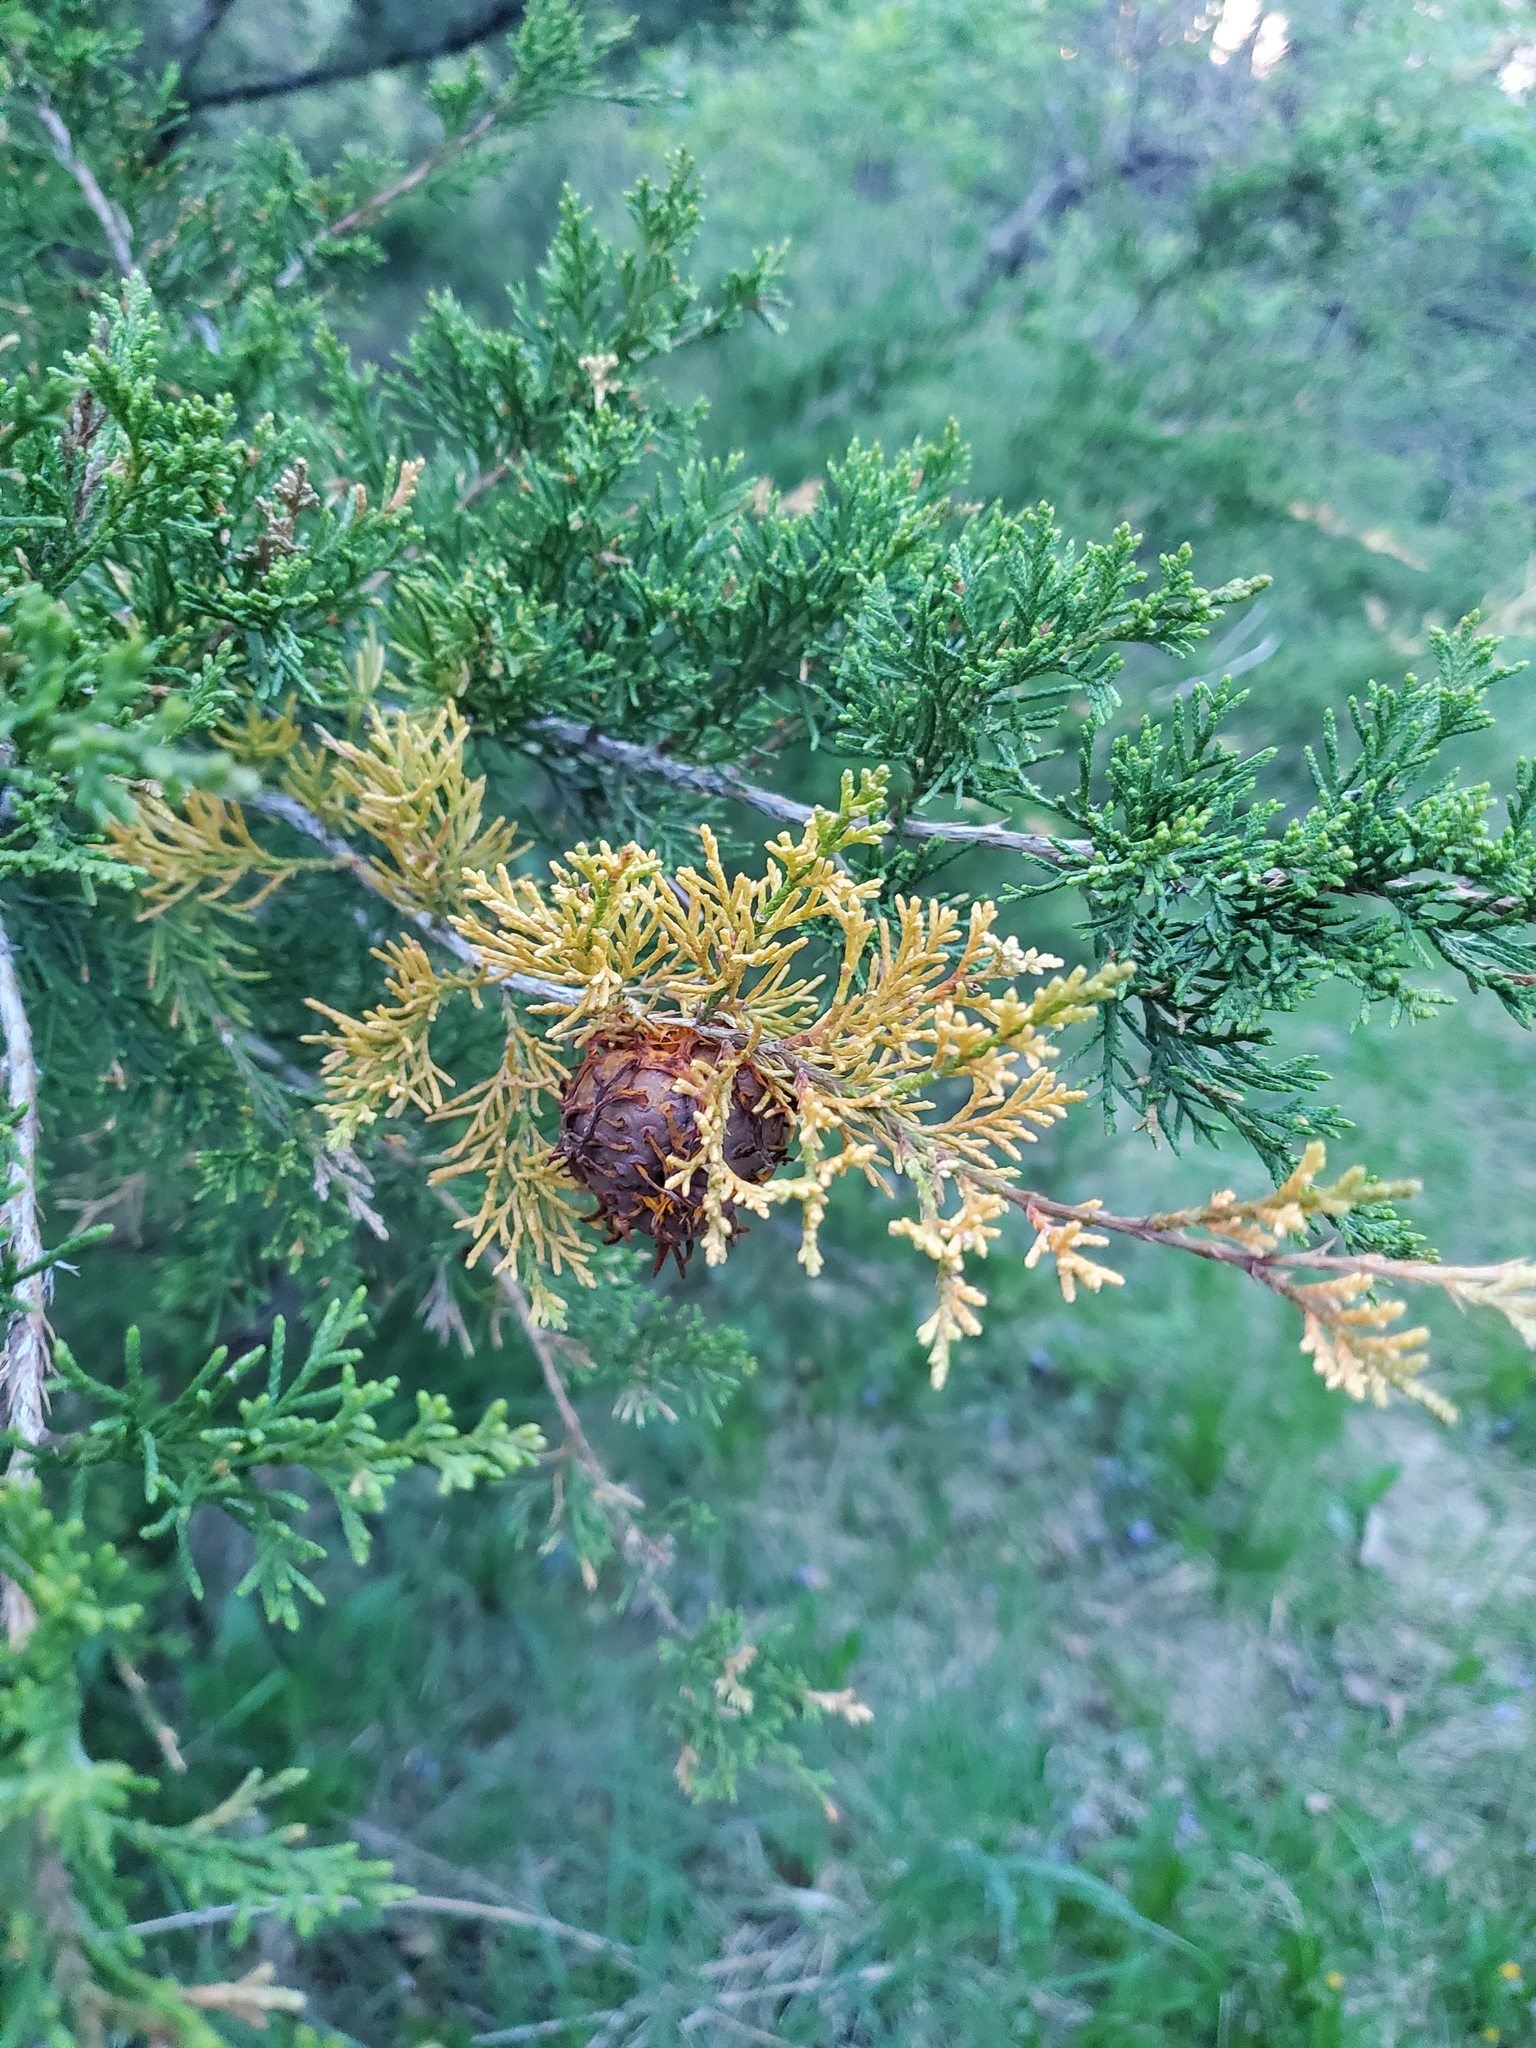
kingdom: Fungi
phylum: Basidiomycota
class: Pucciniomycetes
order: Pucciniales
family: Gymnosporangiaceae
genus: Gymnosporangium
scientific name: Gymnosporangium juniperi-virginianae
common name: Juniper-apple rust
